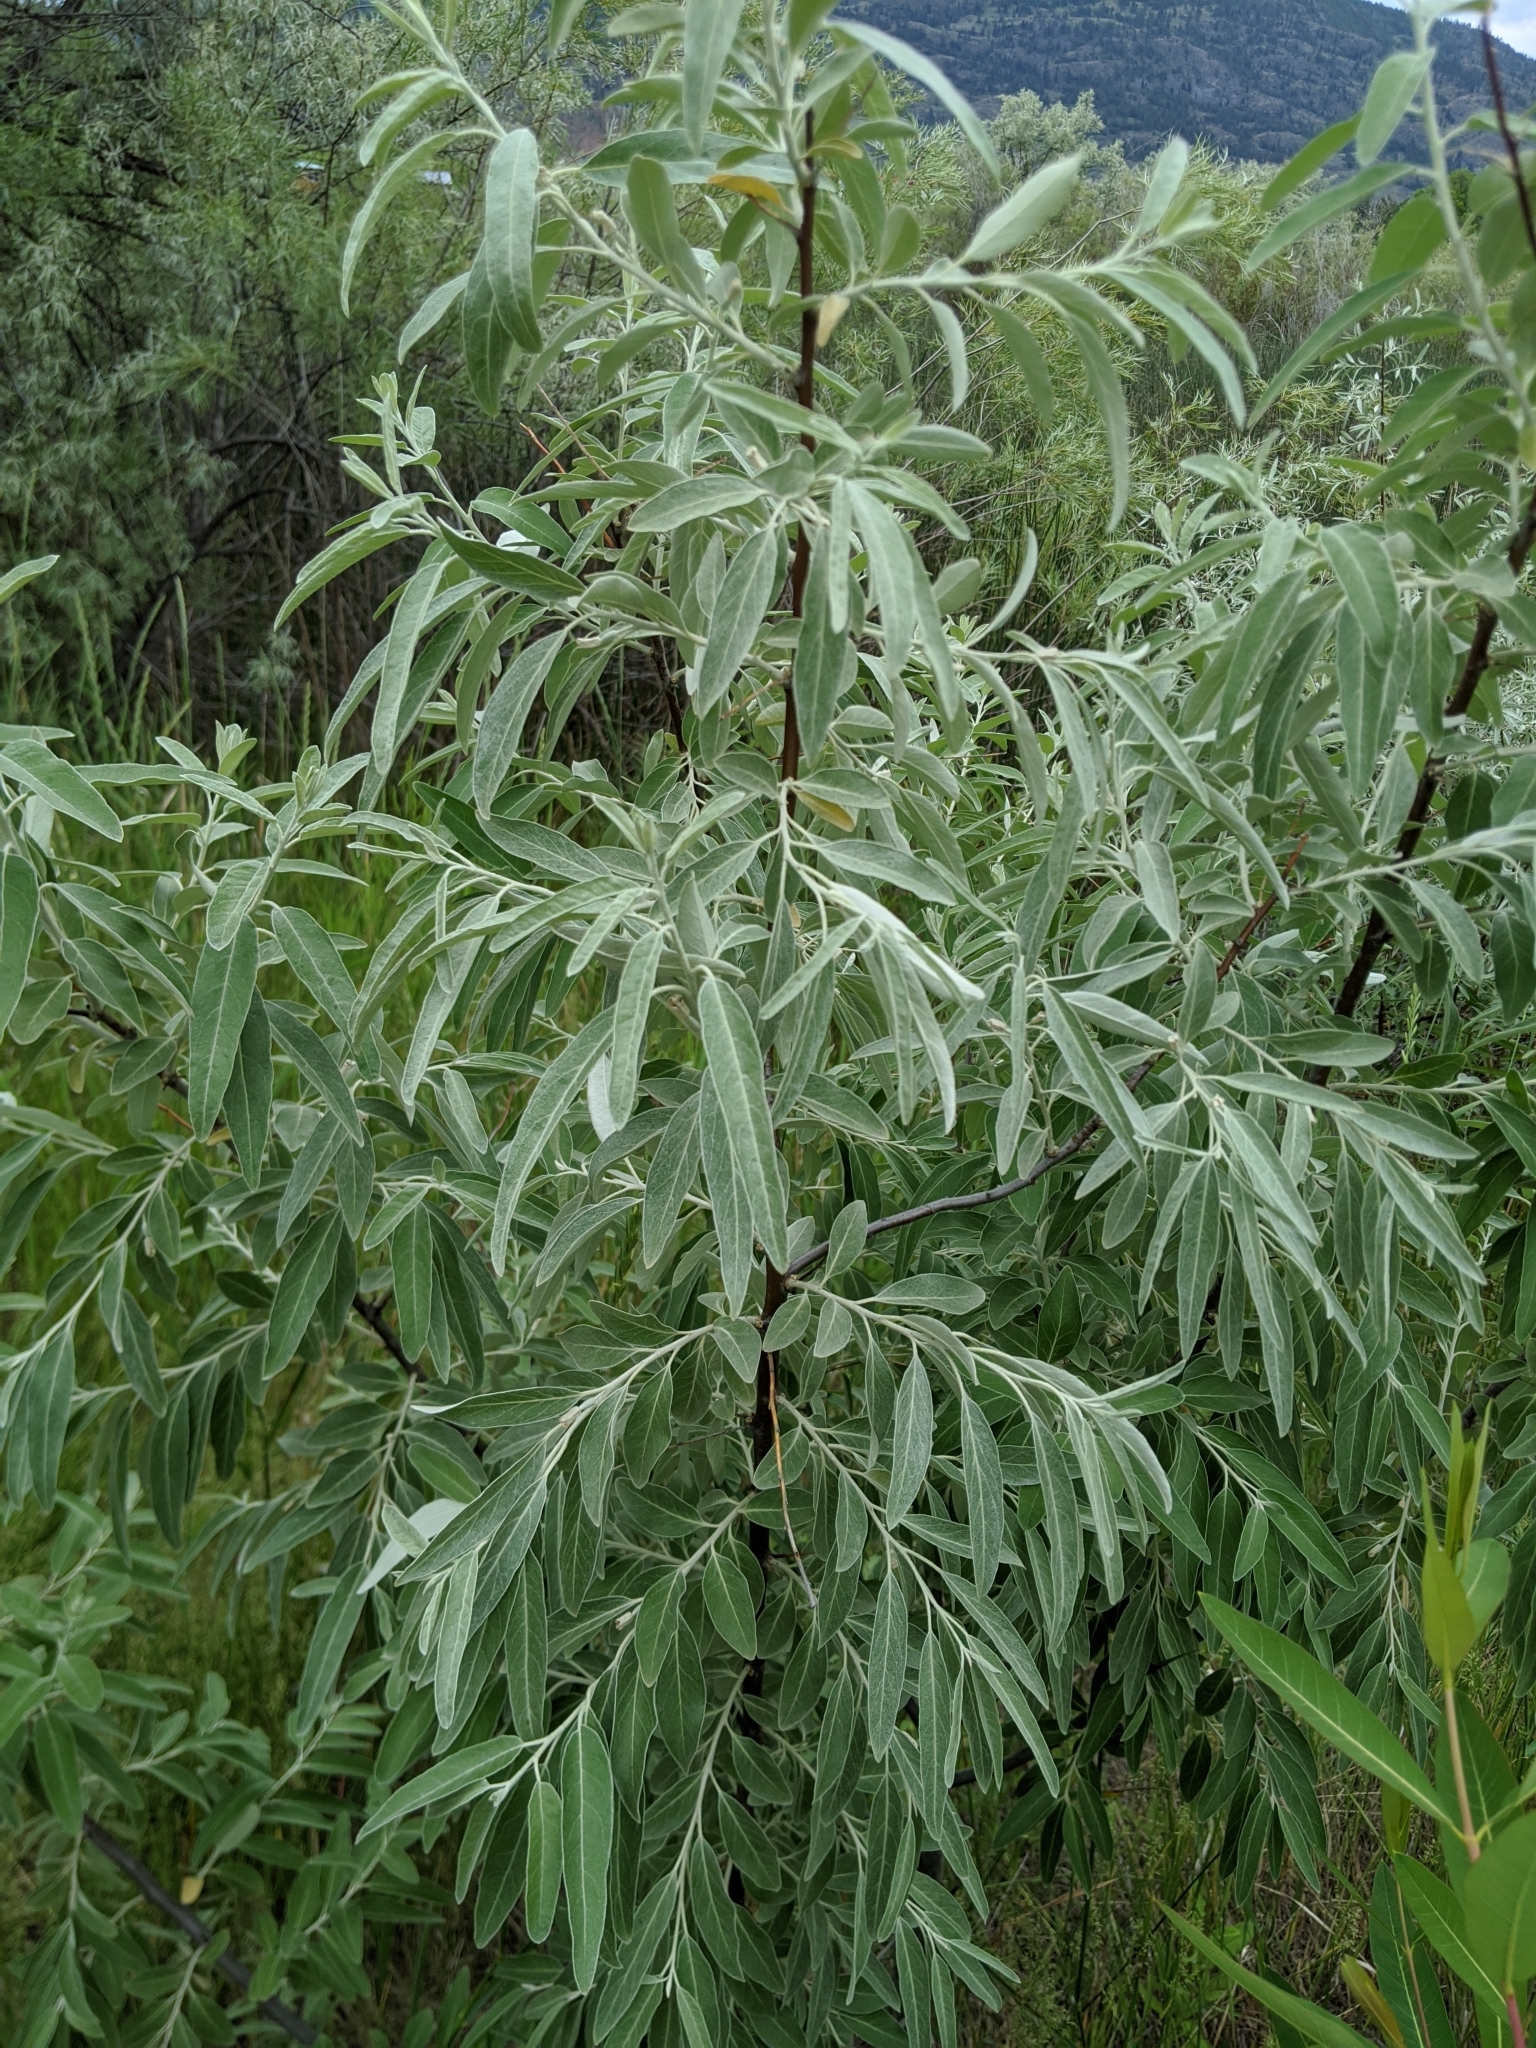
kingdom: Plantae
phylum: Tracheophyta
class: Magnoliopsida
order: Rosales
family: Elaeagnaceae
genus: Elaeagnus
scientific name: Elaeagnus angustifolia
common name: Russian olive
